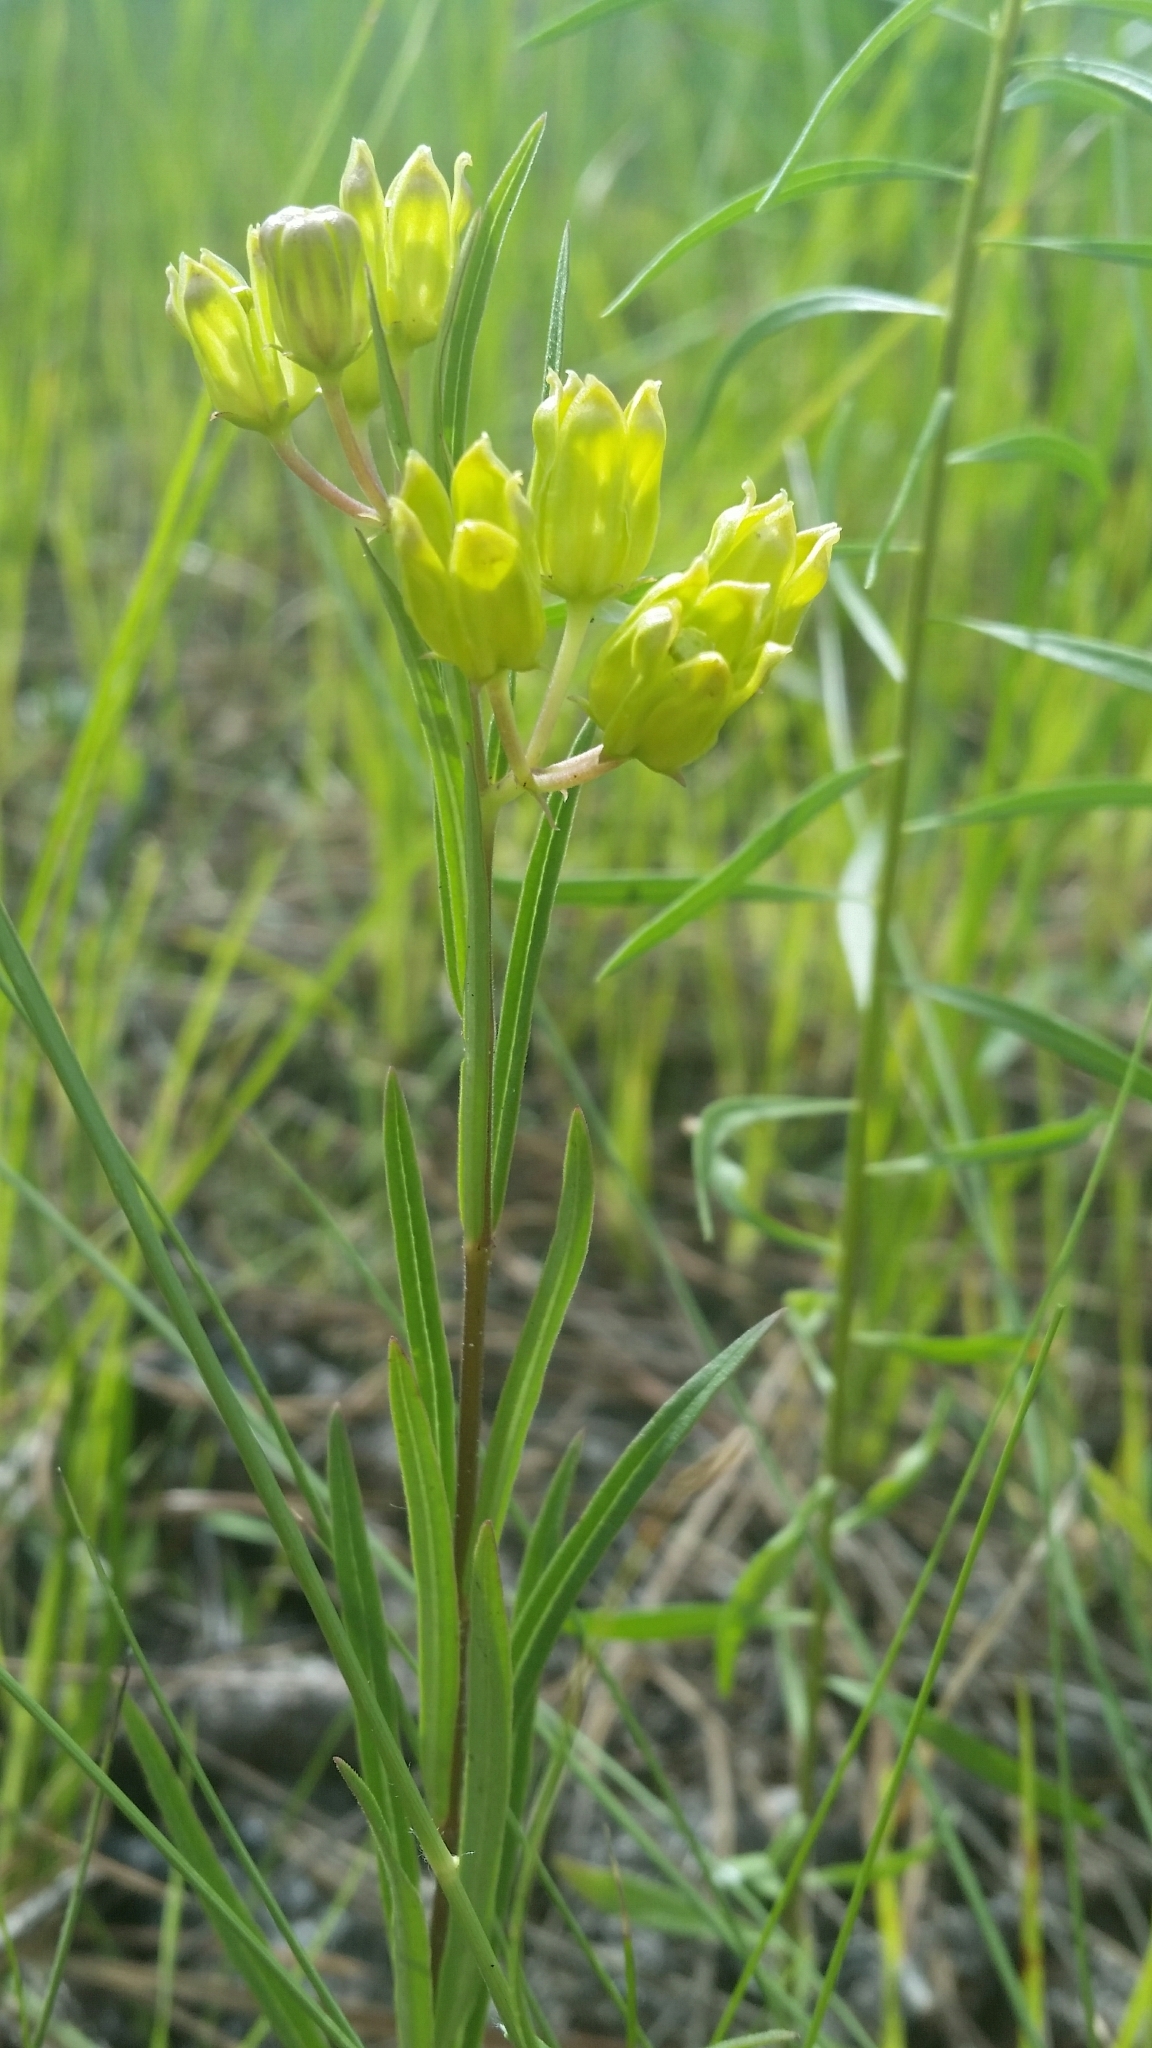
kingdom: Plantae
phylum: Tracheophyta
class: Magnoliopsida
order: Gentianales
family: Apocynaceae
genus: Asclepias
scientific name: Asclepias pedicellata
